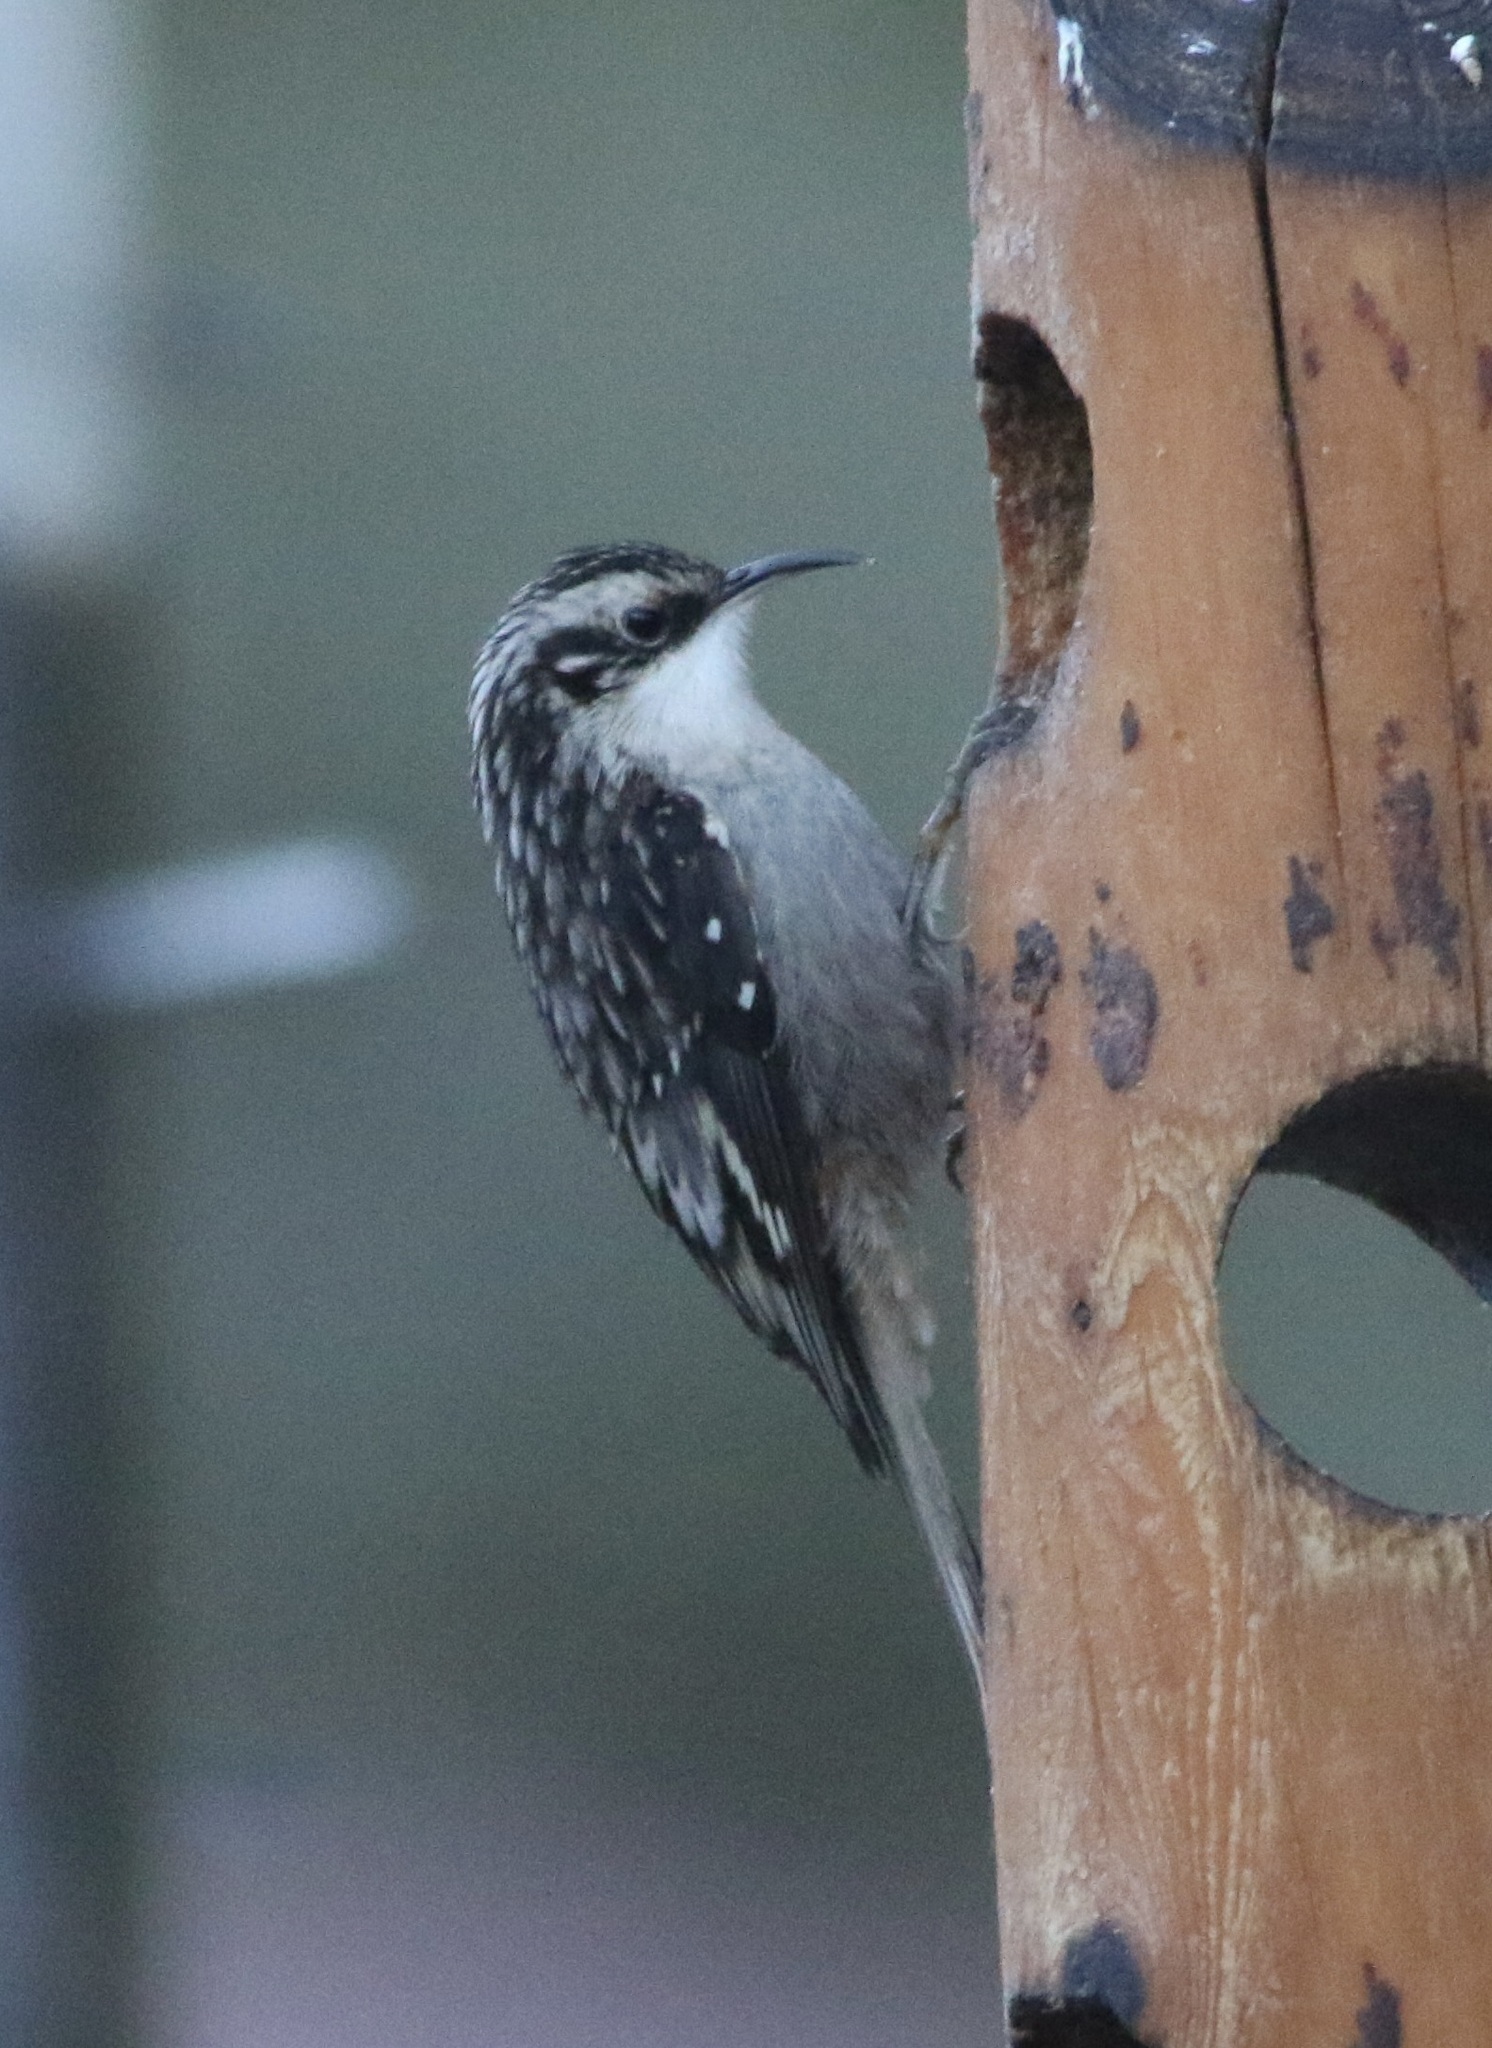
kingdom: Animalia
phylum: Chordata
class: Aves
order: Passeriformes
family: Certhiidae
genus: Certhia
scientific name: Certhia americana
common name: Brown creeper
